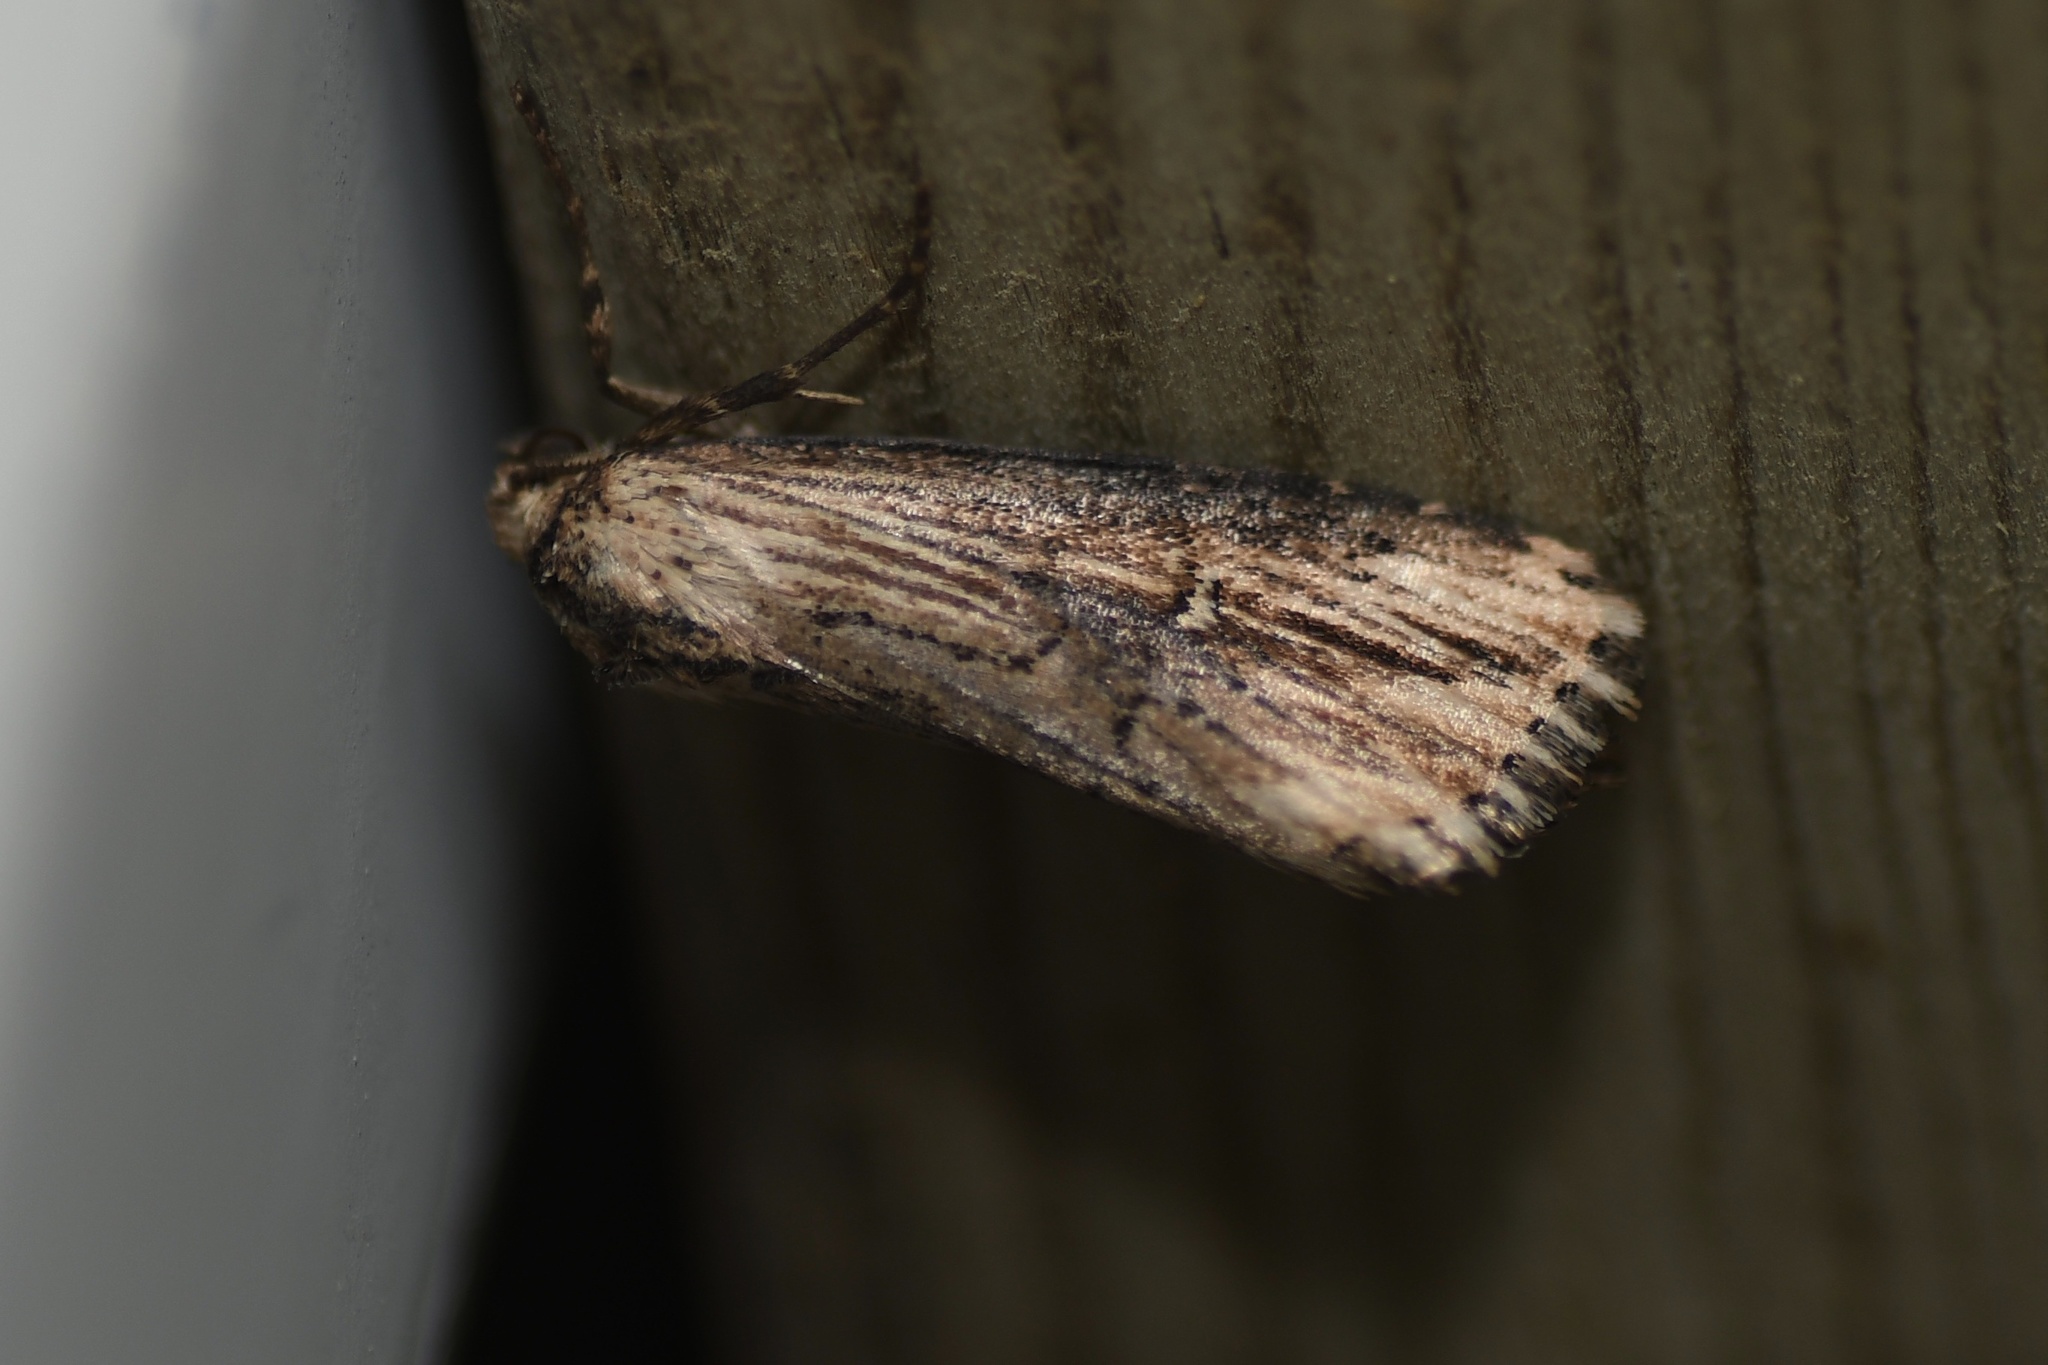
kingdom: Animalia
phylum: Arthropoda
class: Insecta
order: Lepidoptera
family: Noctuidae
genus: Crambodes
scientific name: Crambodes talidiformis
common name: Verbena moth
